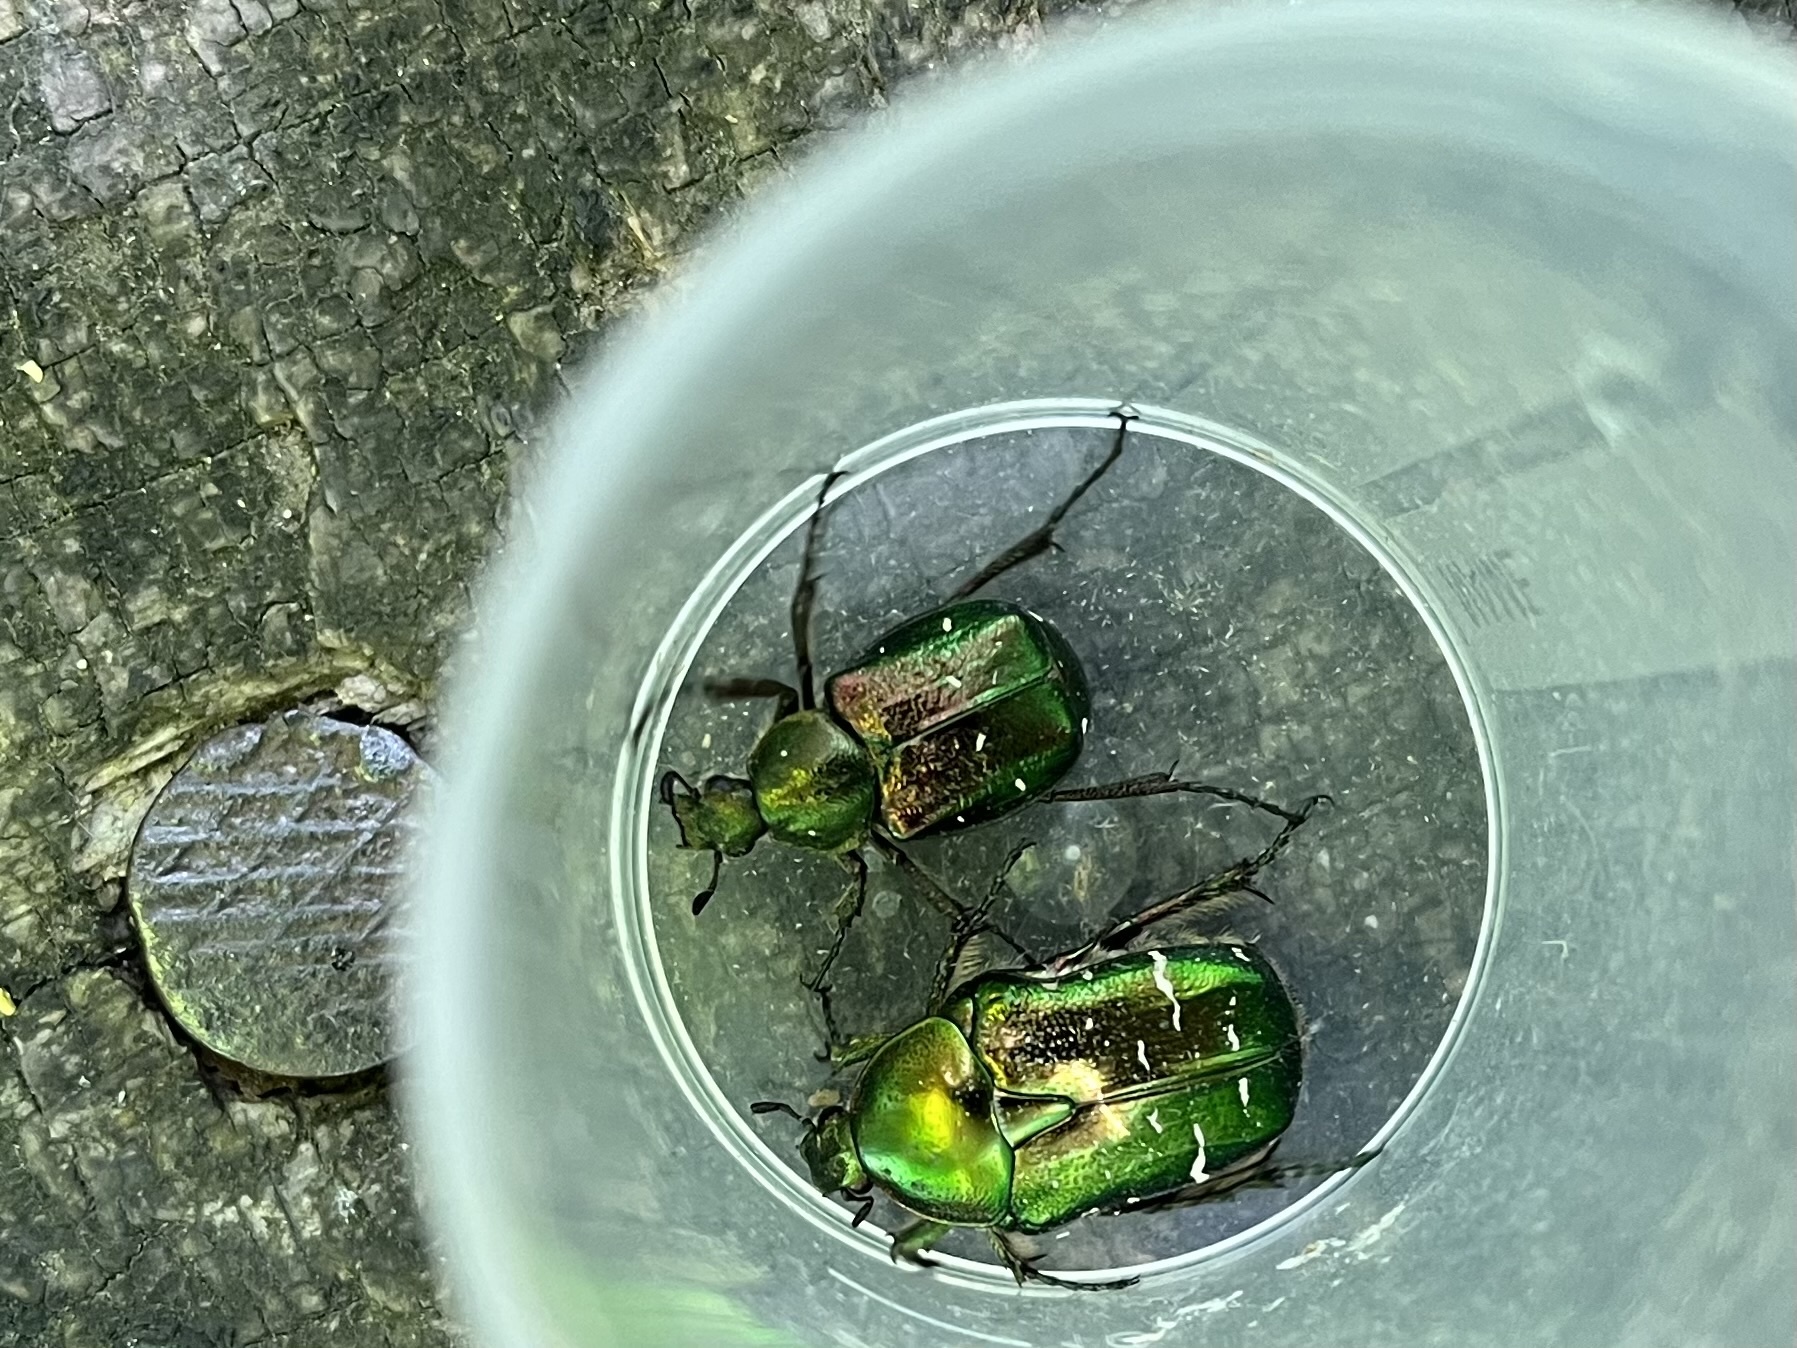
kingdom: Animalia
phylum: Arthropoda
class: Insecta
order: Coleoptera
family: Scarabaeidae
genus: Gnorimus
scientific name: Gnorimus nobilis
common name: Noble chafer
